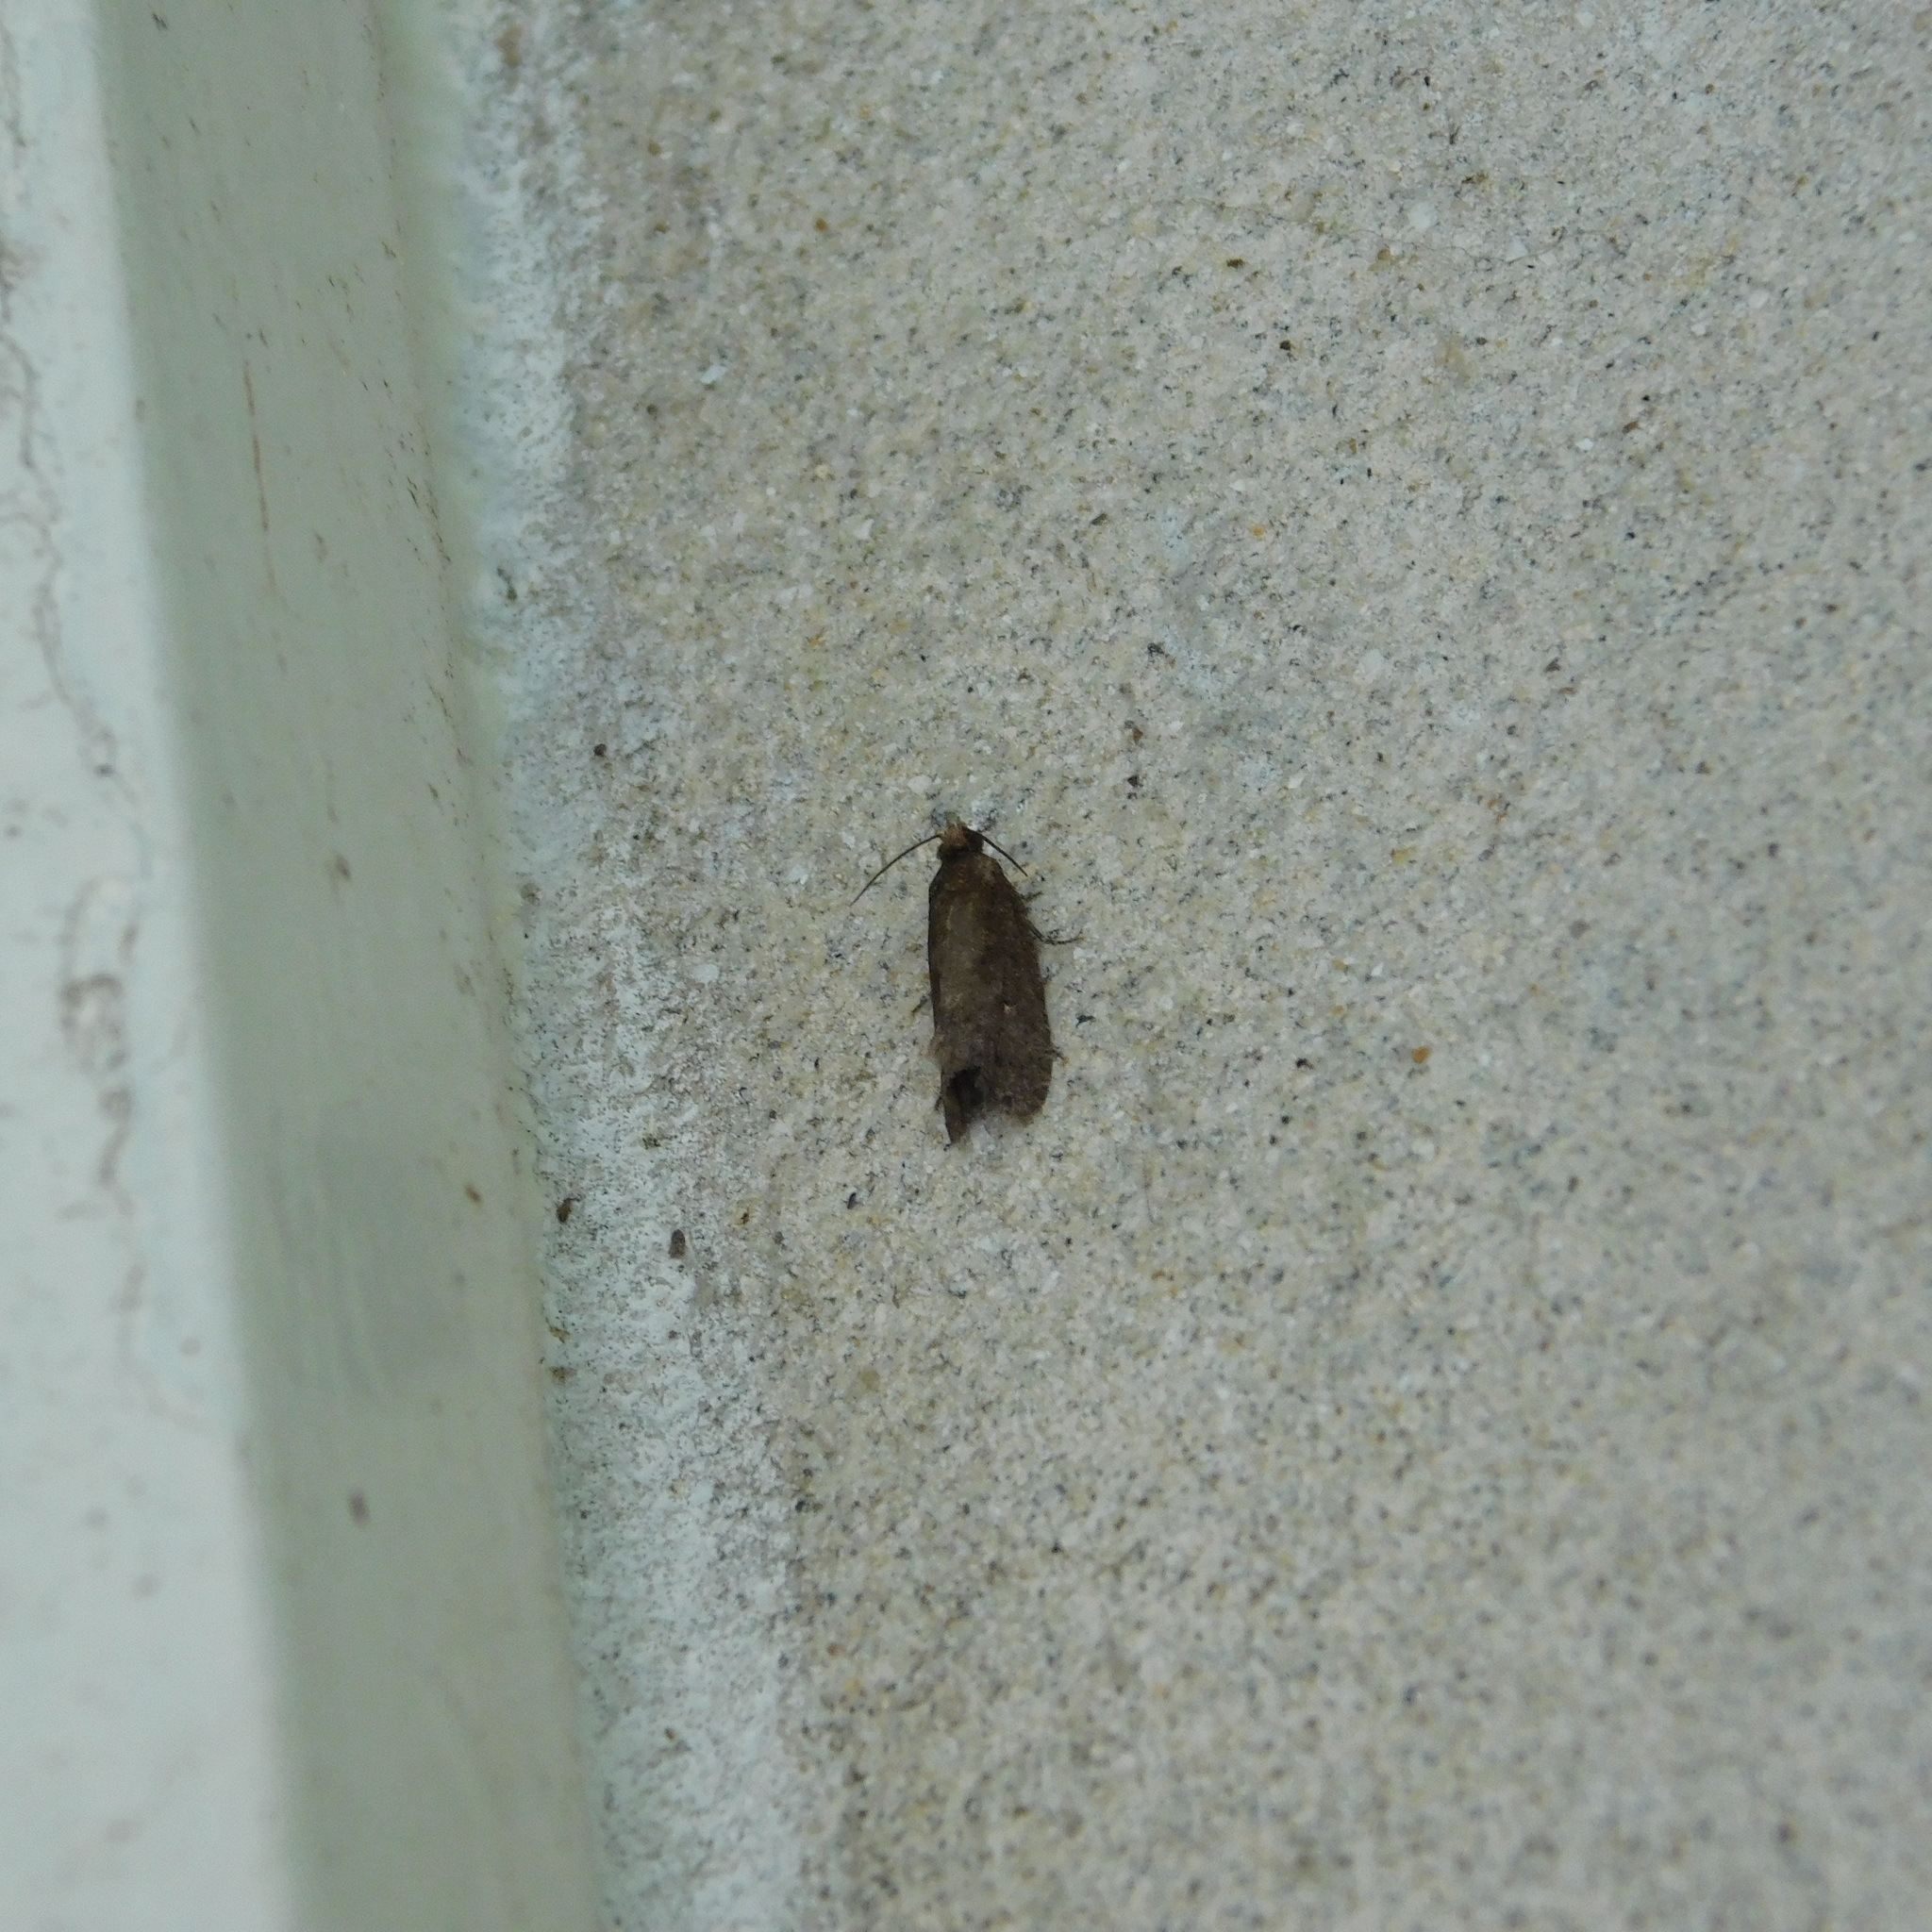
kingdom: Animalia
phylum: Arthropoda
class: Insecta
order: Lepidoptera
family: Tortricidae
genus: Cryptaspasma
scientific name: Cryptaspasma querula
